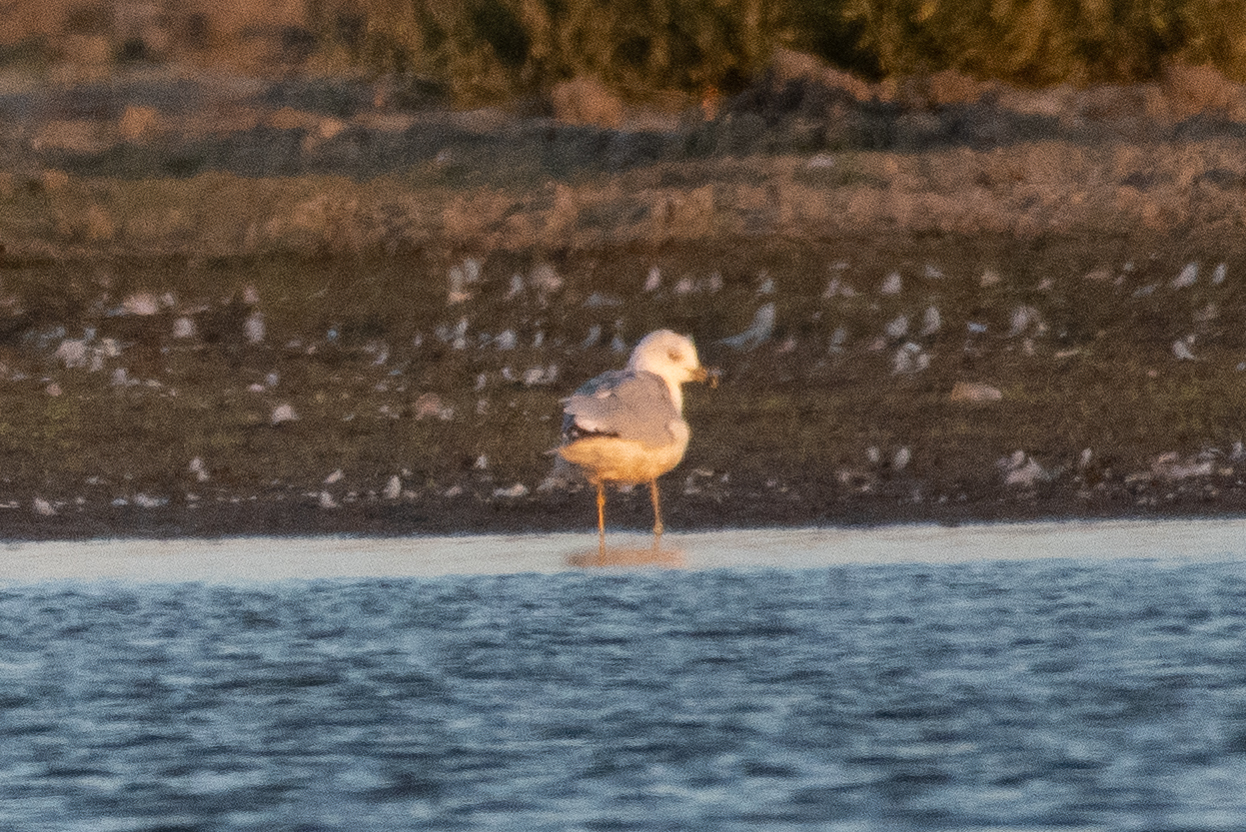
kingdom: Animalia
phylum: Chordata
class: Aves
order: Charadriiformes
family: Laridae
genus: Larus
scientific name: Larus delawarensis
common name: Ring-billed gull
